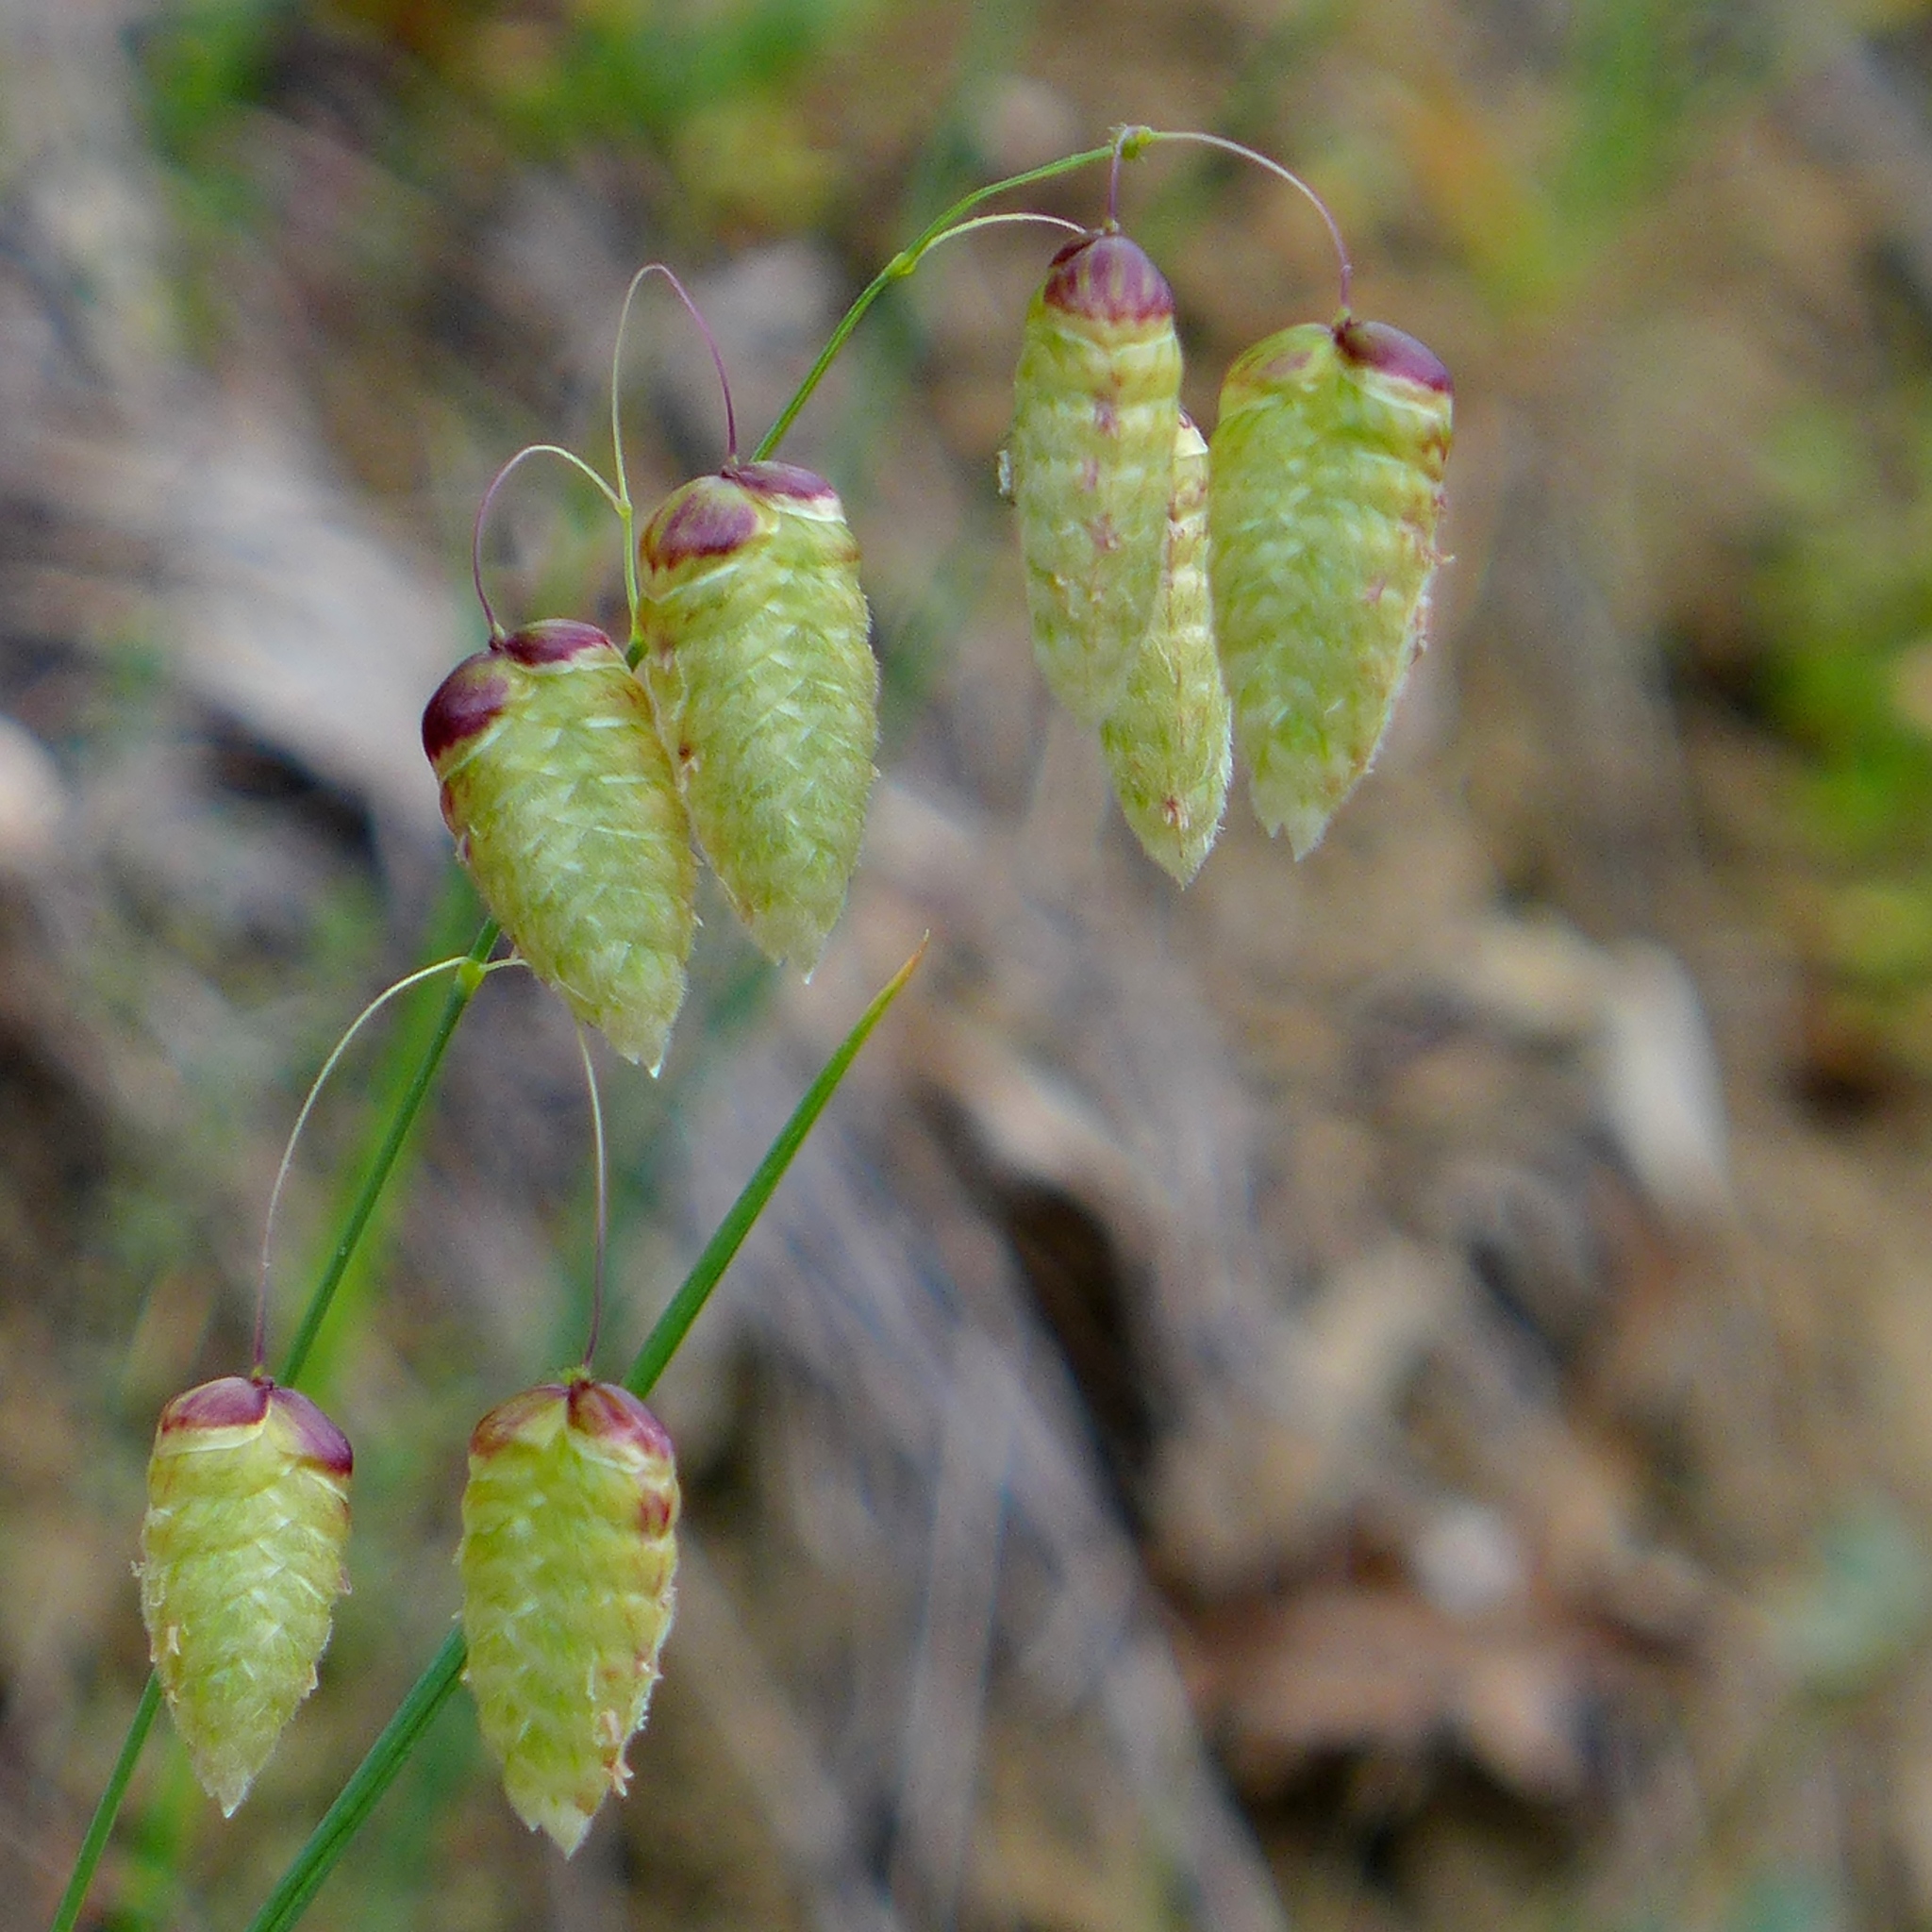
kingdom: Plantae
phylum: Tracheophyta
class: Liliopsida
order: Poales
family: Poaceae
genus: Briza
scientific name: Briza maxima
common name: Big quakinggrass
